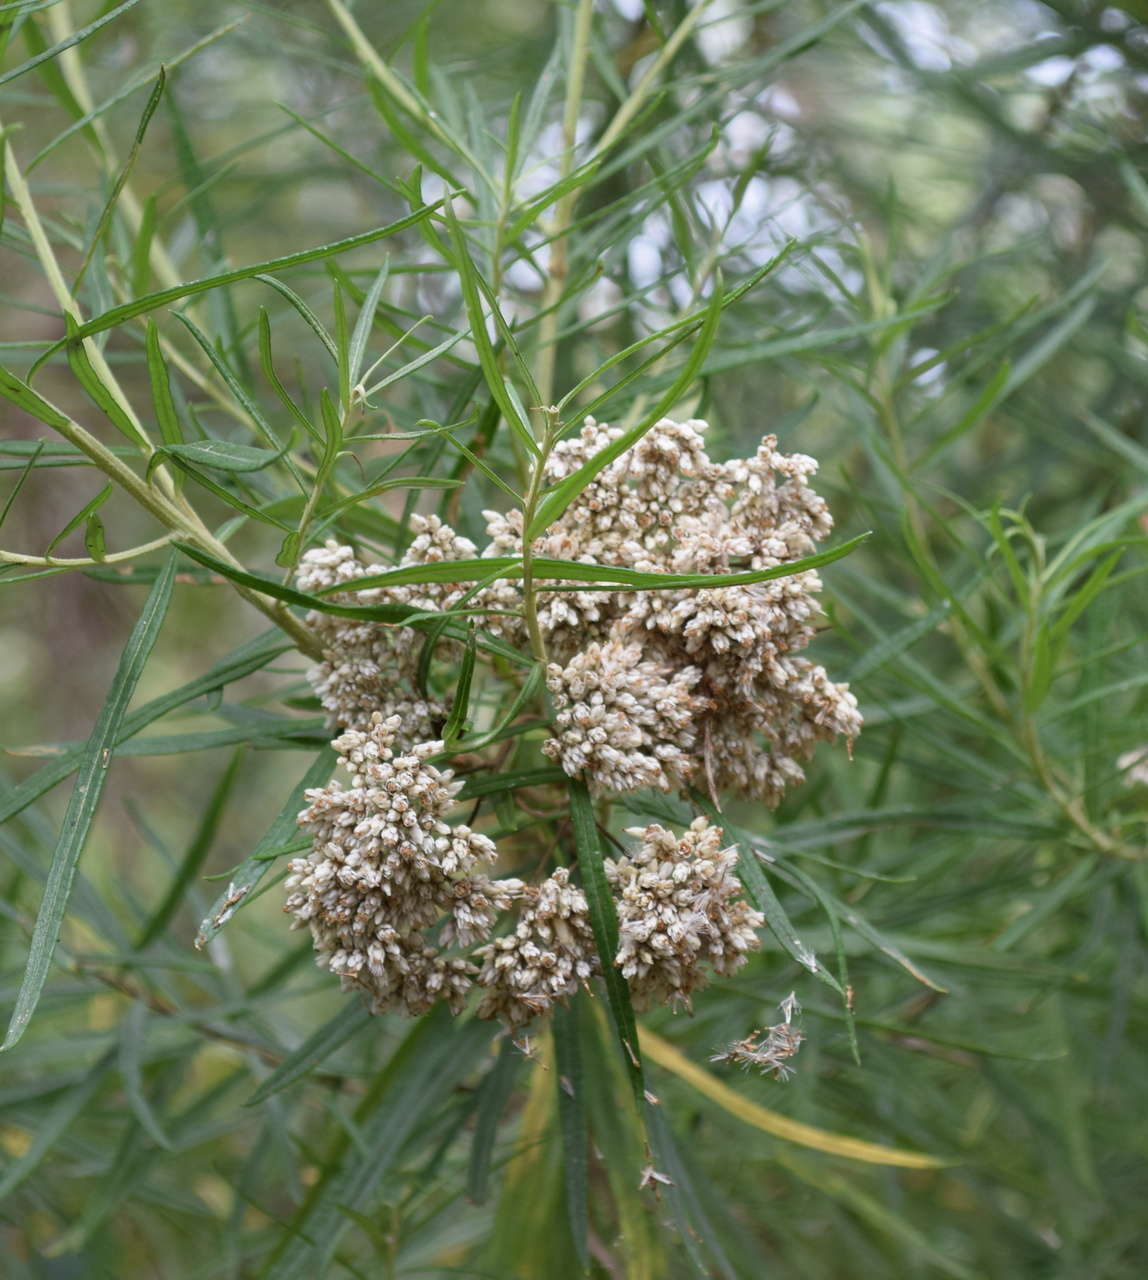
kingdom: Plantae
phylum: Tracheophyta
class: Magnoliopsida
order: Asterales
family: Asteraceae
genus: Cassinia
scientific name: Cassinia longifolia
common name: Longleaf-dogwood
